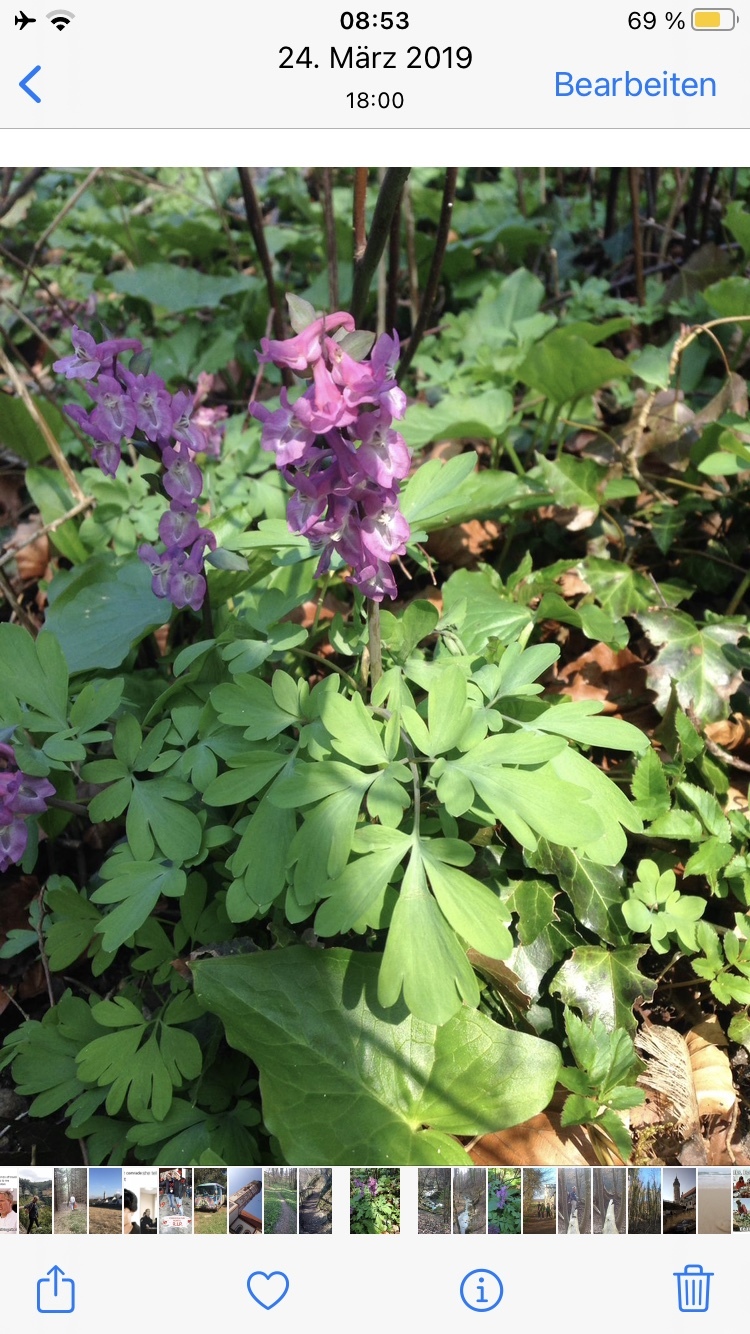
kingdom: Plantae
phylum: Tracheophyta
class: Magnoliopsida
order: Ranunculales
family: Papaveraceae
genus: Corydalis
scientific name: Corydalis cava
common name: Hollowroot
